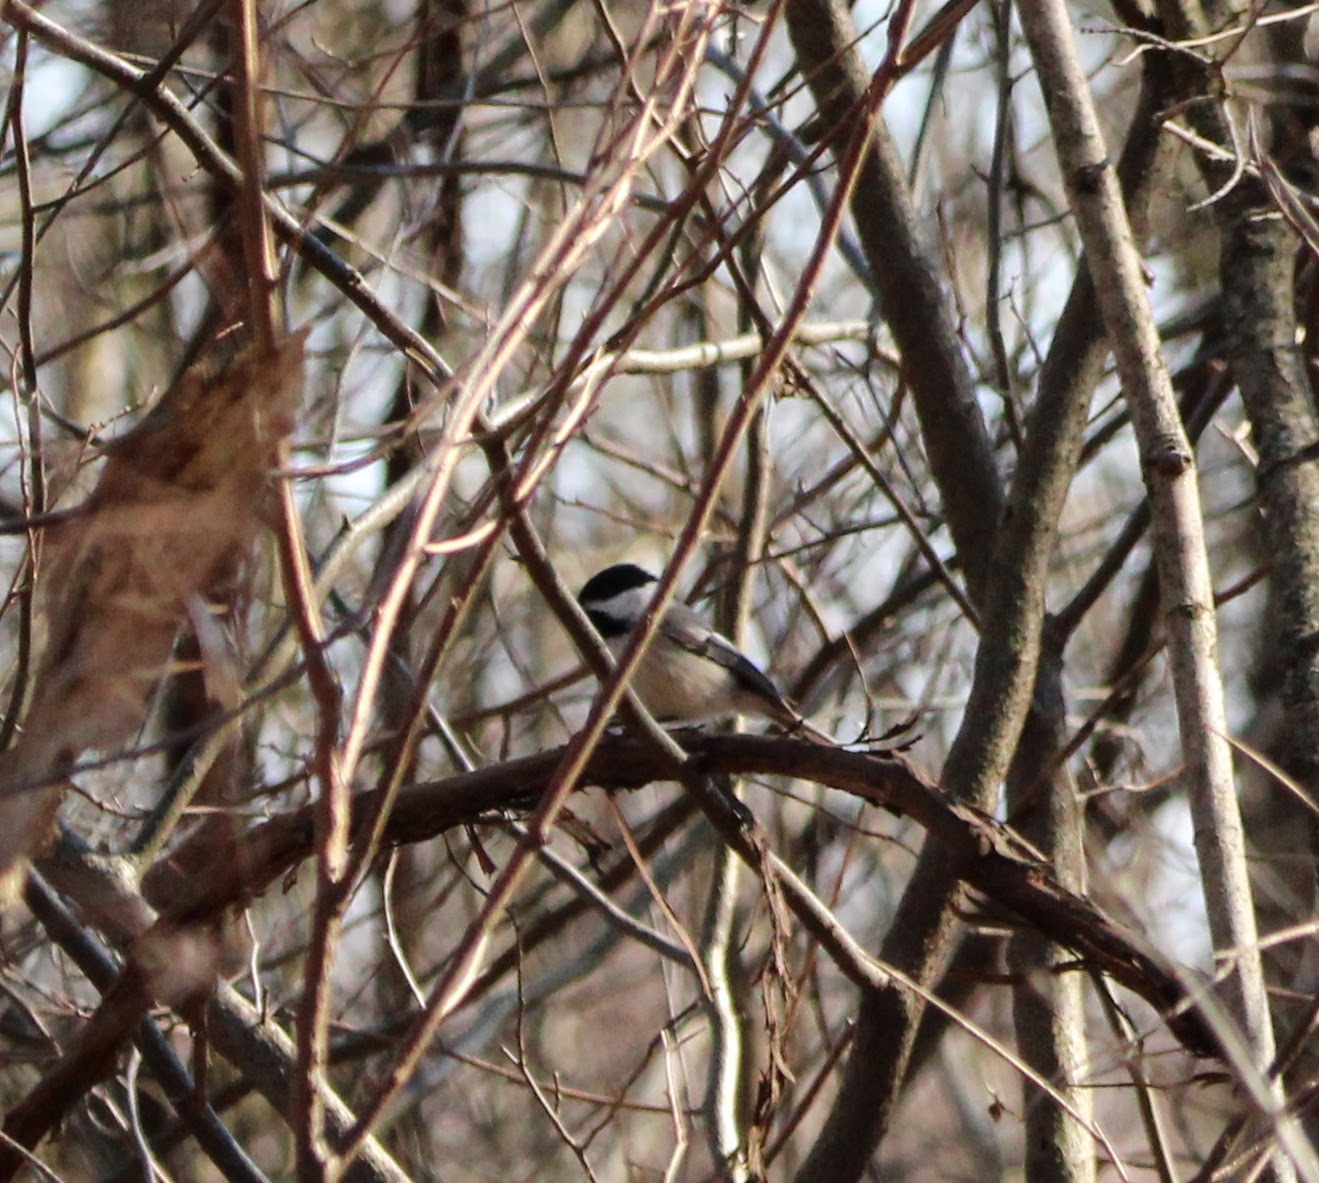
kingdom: Animalia
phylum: Chordata
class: Aves
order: Passeriformes
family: Paridae
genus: Poecile
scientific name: Poecile atricapillus
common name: Black-capped chickadee
